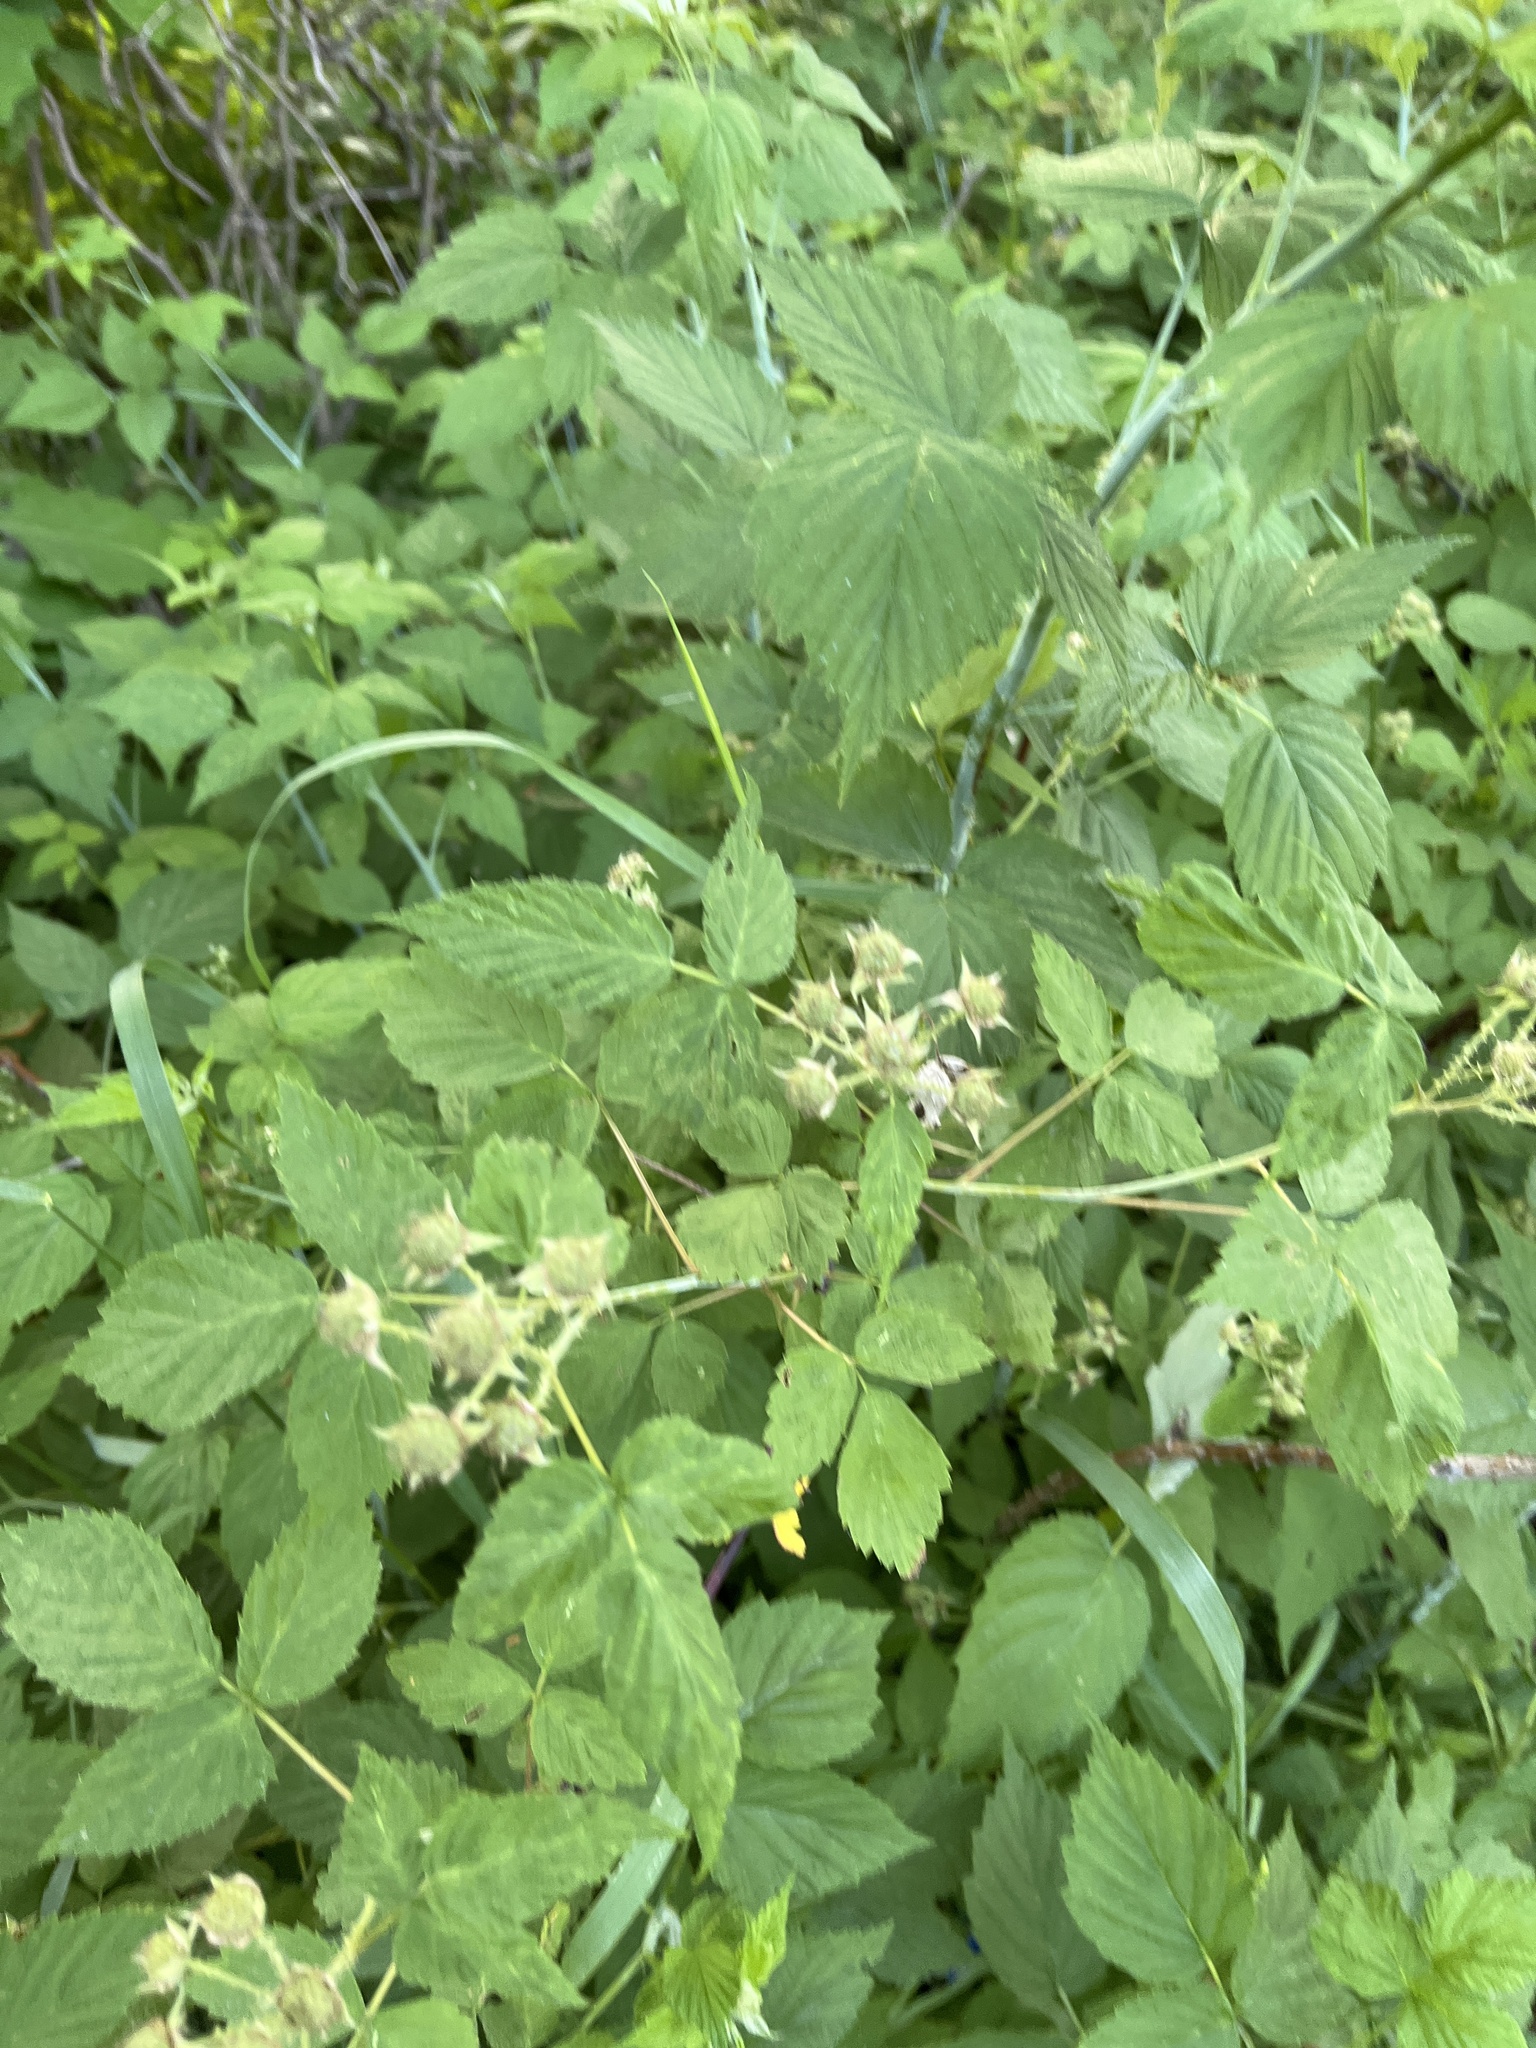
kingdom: Plantae
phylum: Tracheophyta
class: Magnoliopsida
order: Rosales
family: Rosaceae
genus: Rubus
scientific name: Rubus occidentalis
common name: Black raspberry
